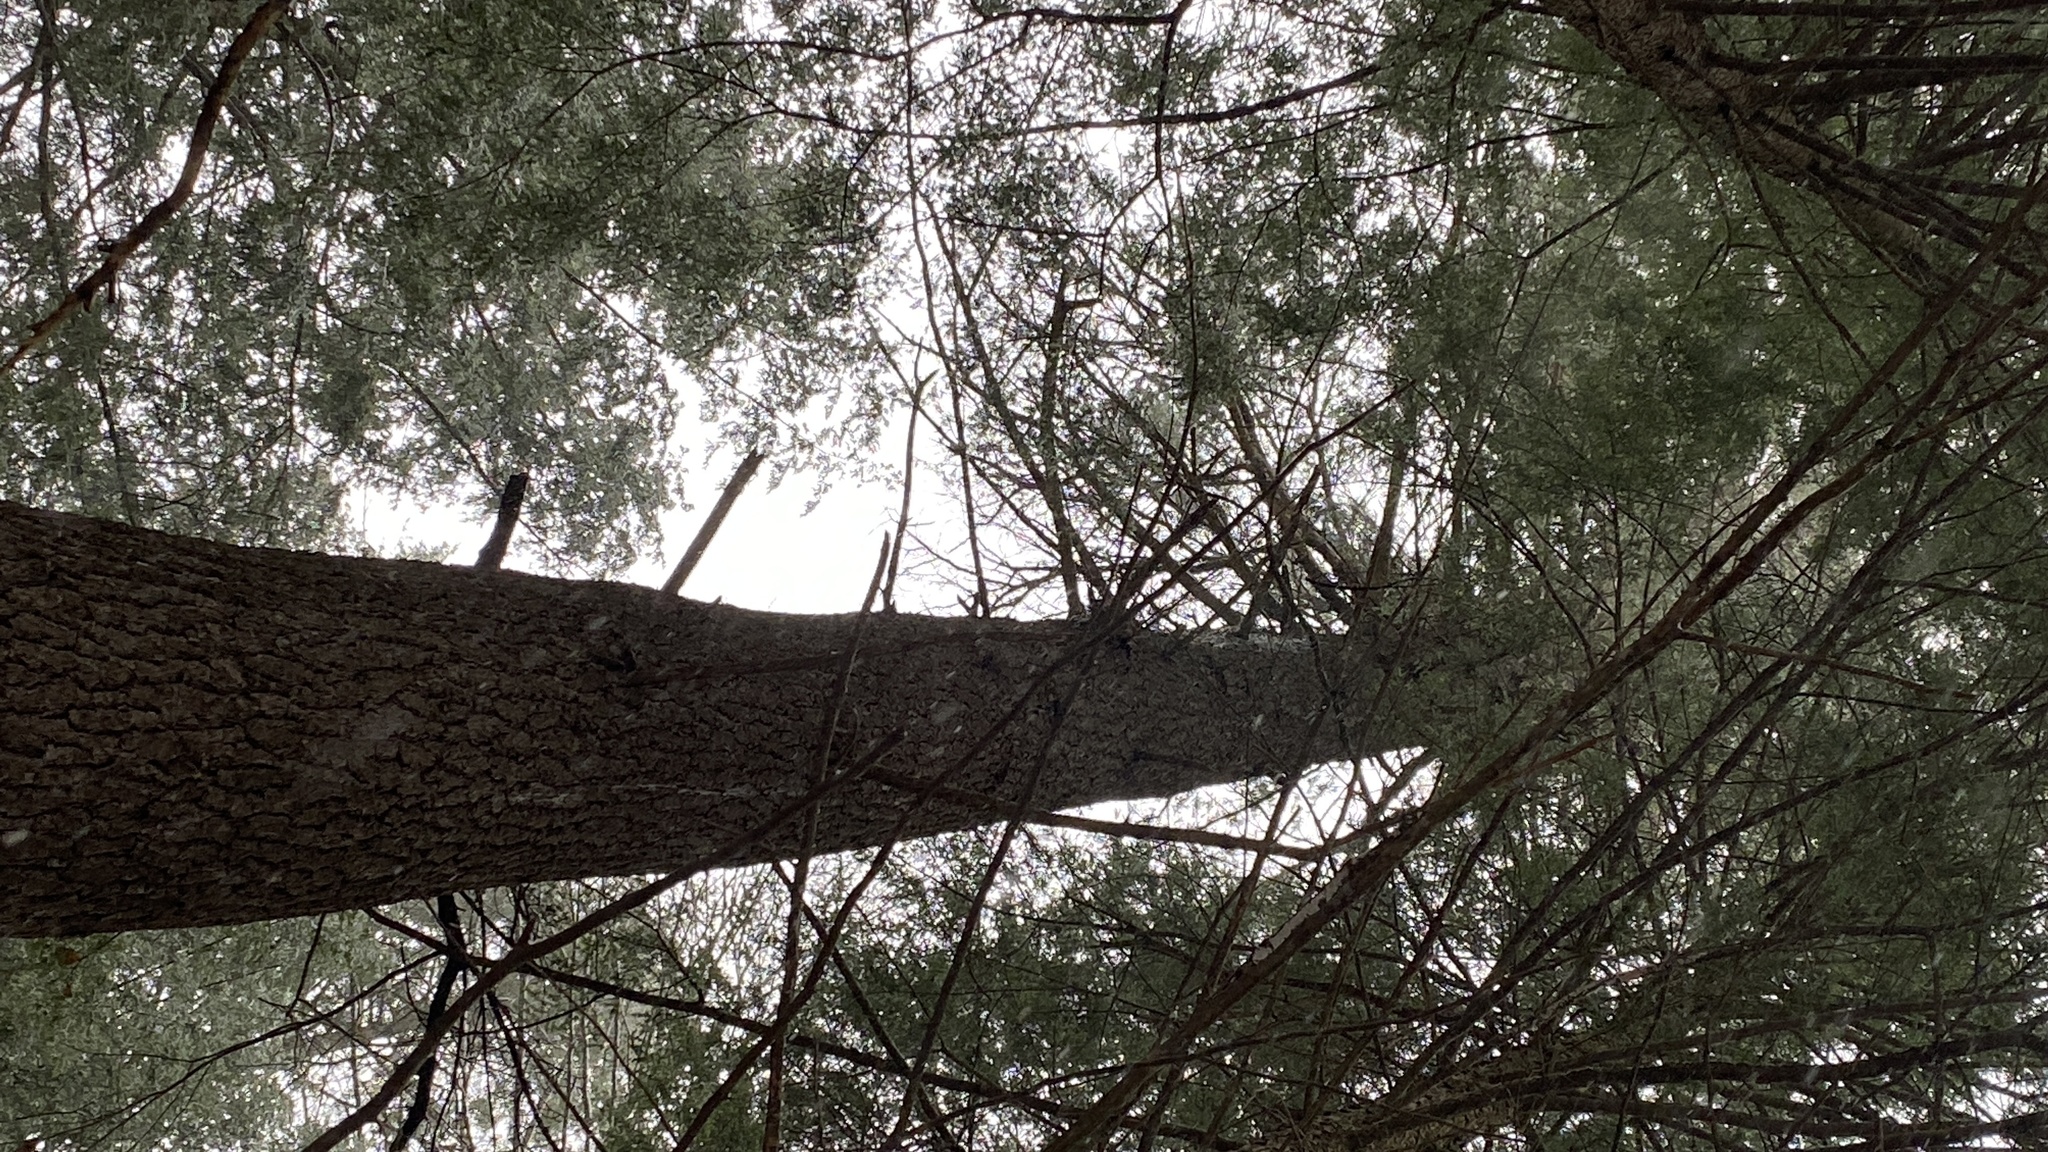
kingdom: Plantae
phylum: Tracheophyta
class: Pinopsida
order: Pinales
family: Pinaceae
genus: Pinus
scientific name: Pinus strobus
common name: Weymouth pine
